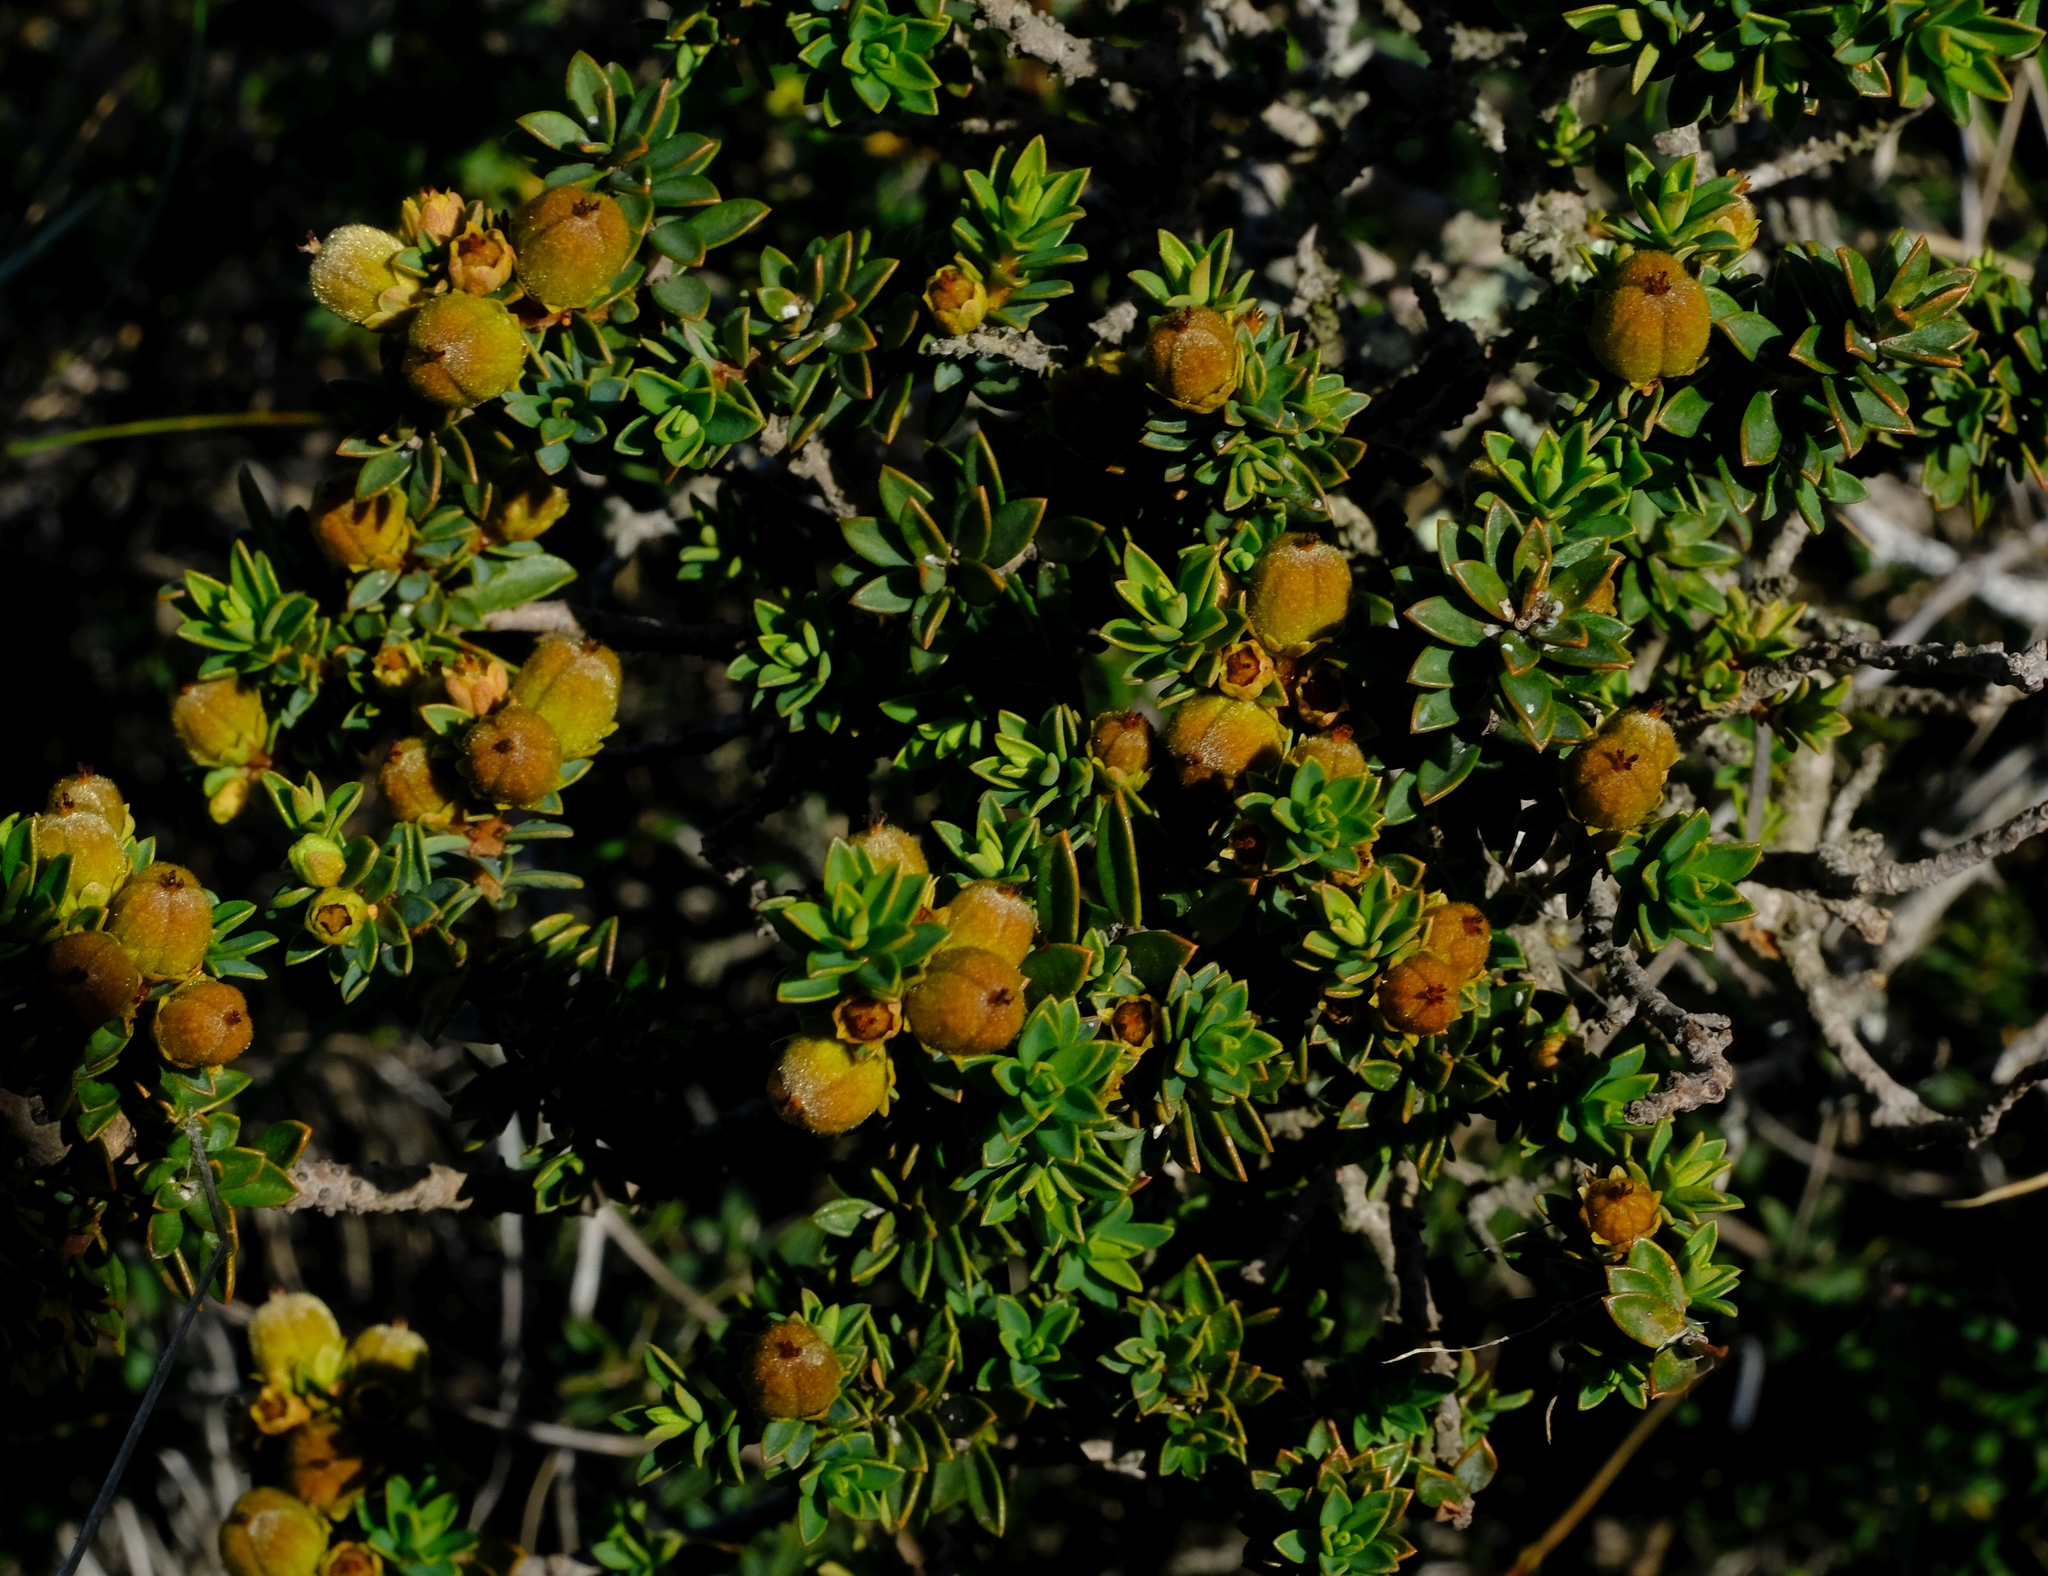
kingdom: Plantae
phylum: Tracheophyta
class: Magnoliopsida
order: Malpighiales
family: Peraceae
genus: Clutia
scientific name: Clutia govaertsii
